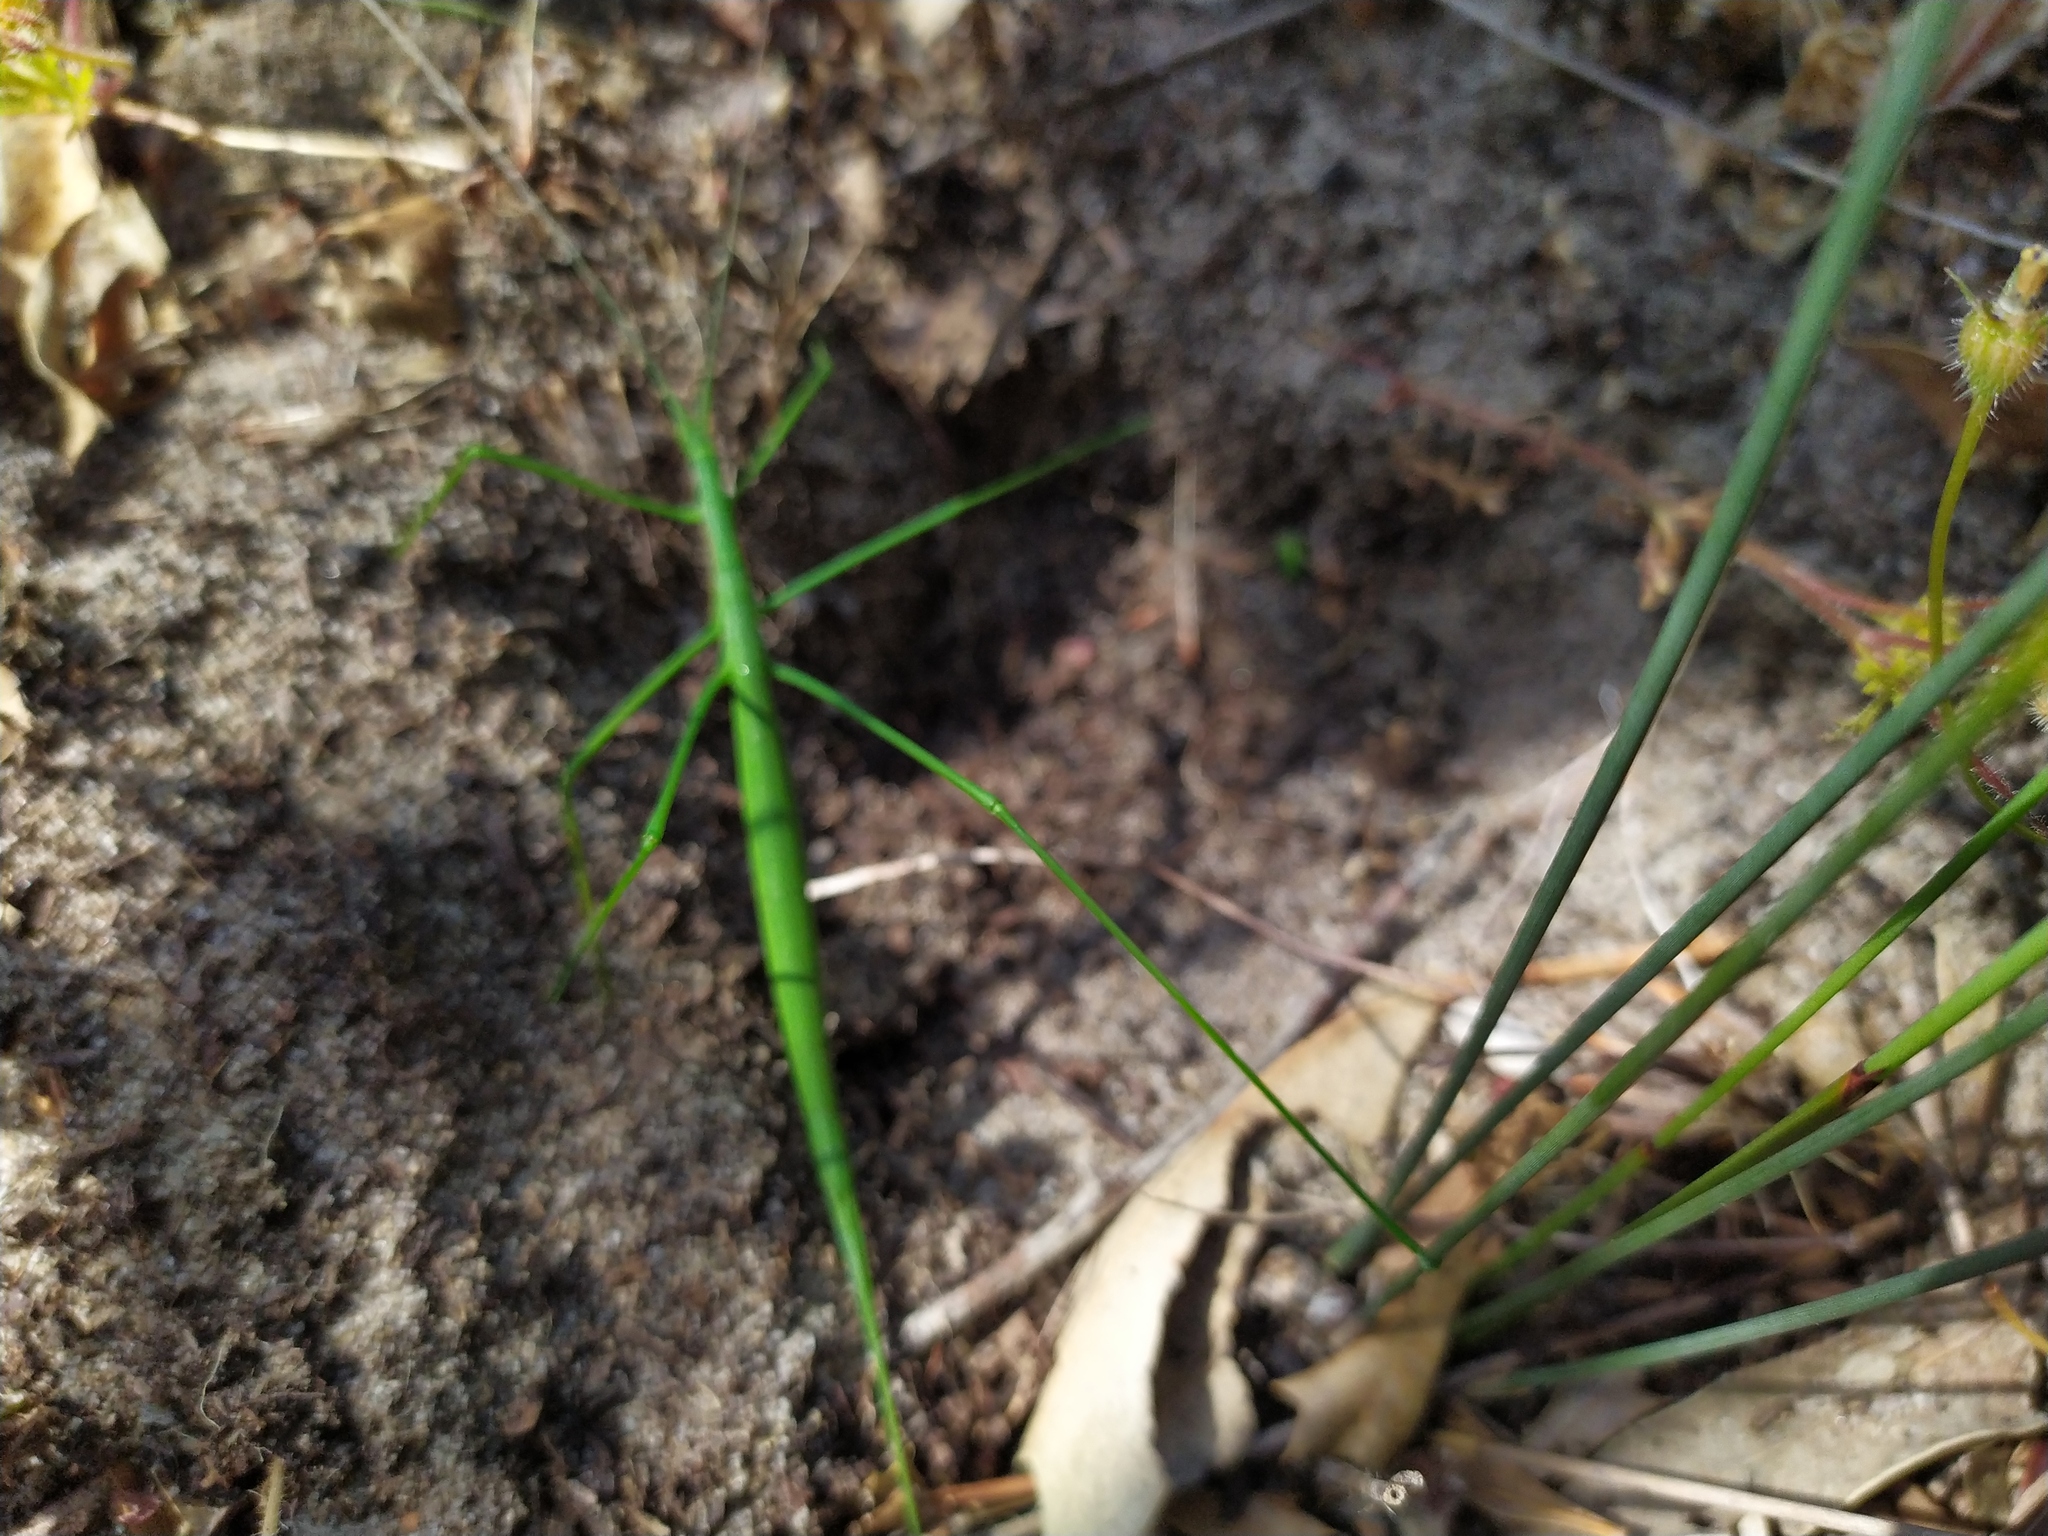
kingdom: Animalia
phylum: Arthropoda
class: Insecta
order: Orthoptera
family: Tettigoniidae
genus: Phasmodes
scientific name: Phasmodes ranatriformis
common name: King's park stick katydid
